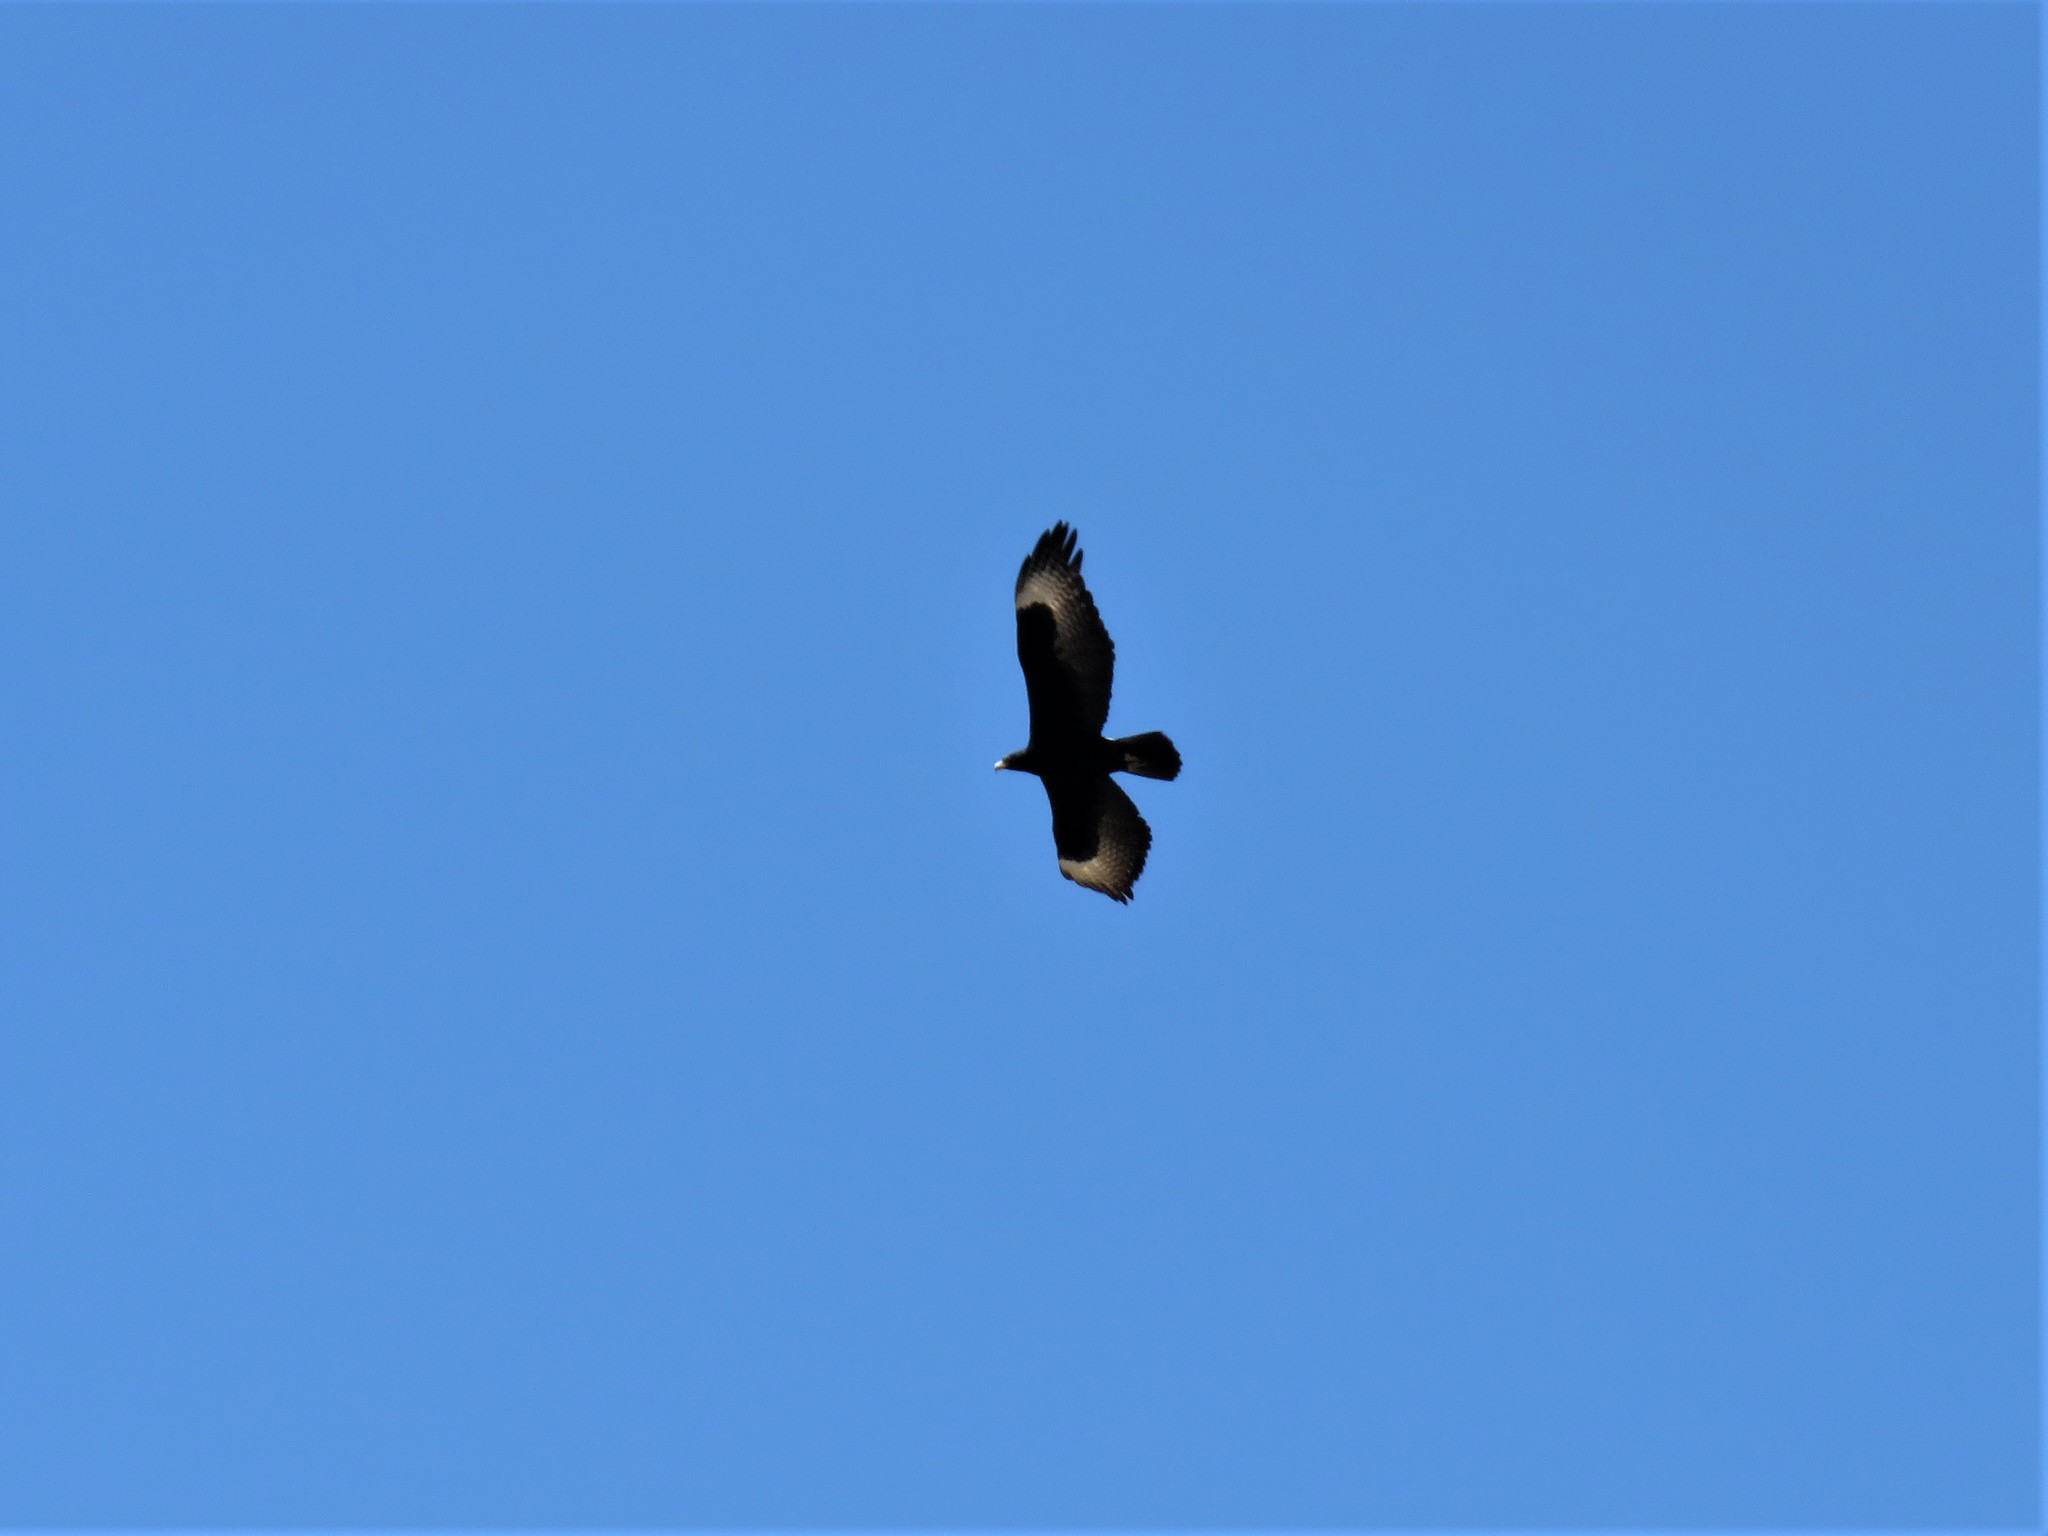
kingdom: Animalia
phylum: Chordata
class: Aves
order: Accipitriformes
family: Accipitridae
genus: Aquila
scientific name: Aquila verreauxii
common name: Verreaux's eagle
